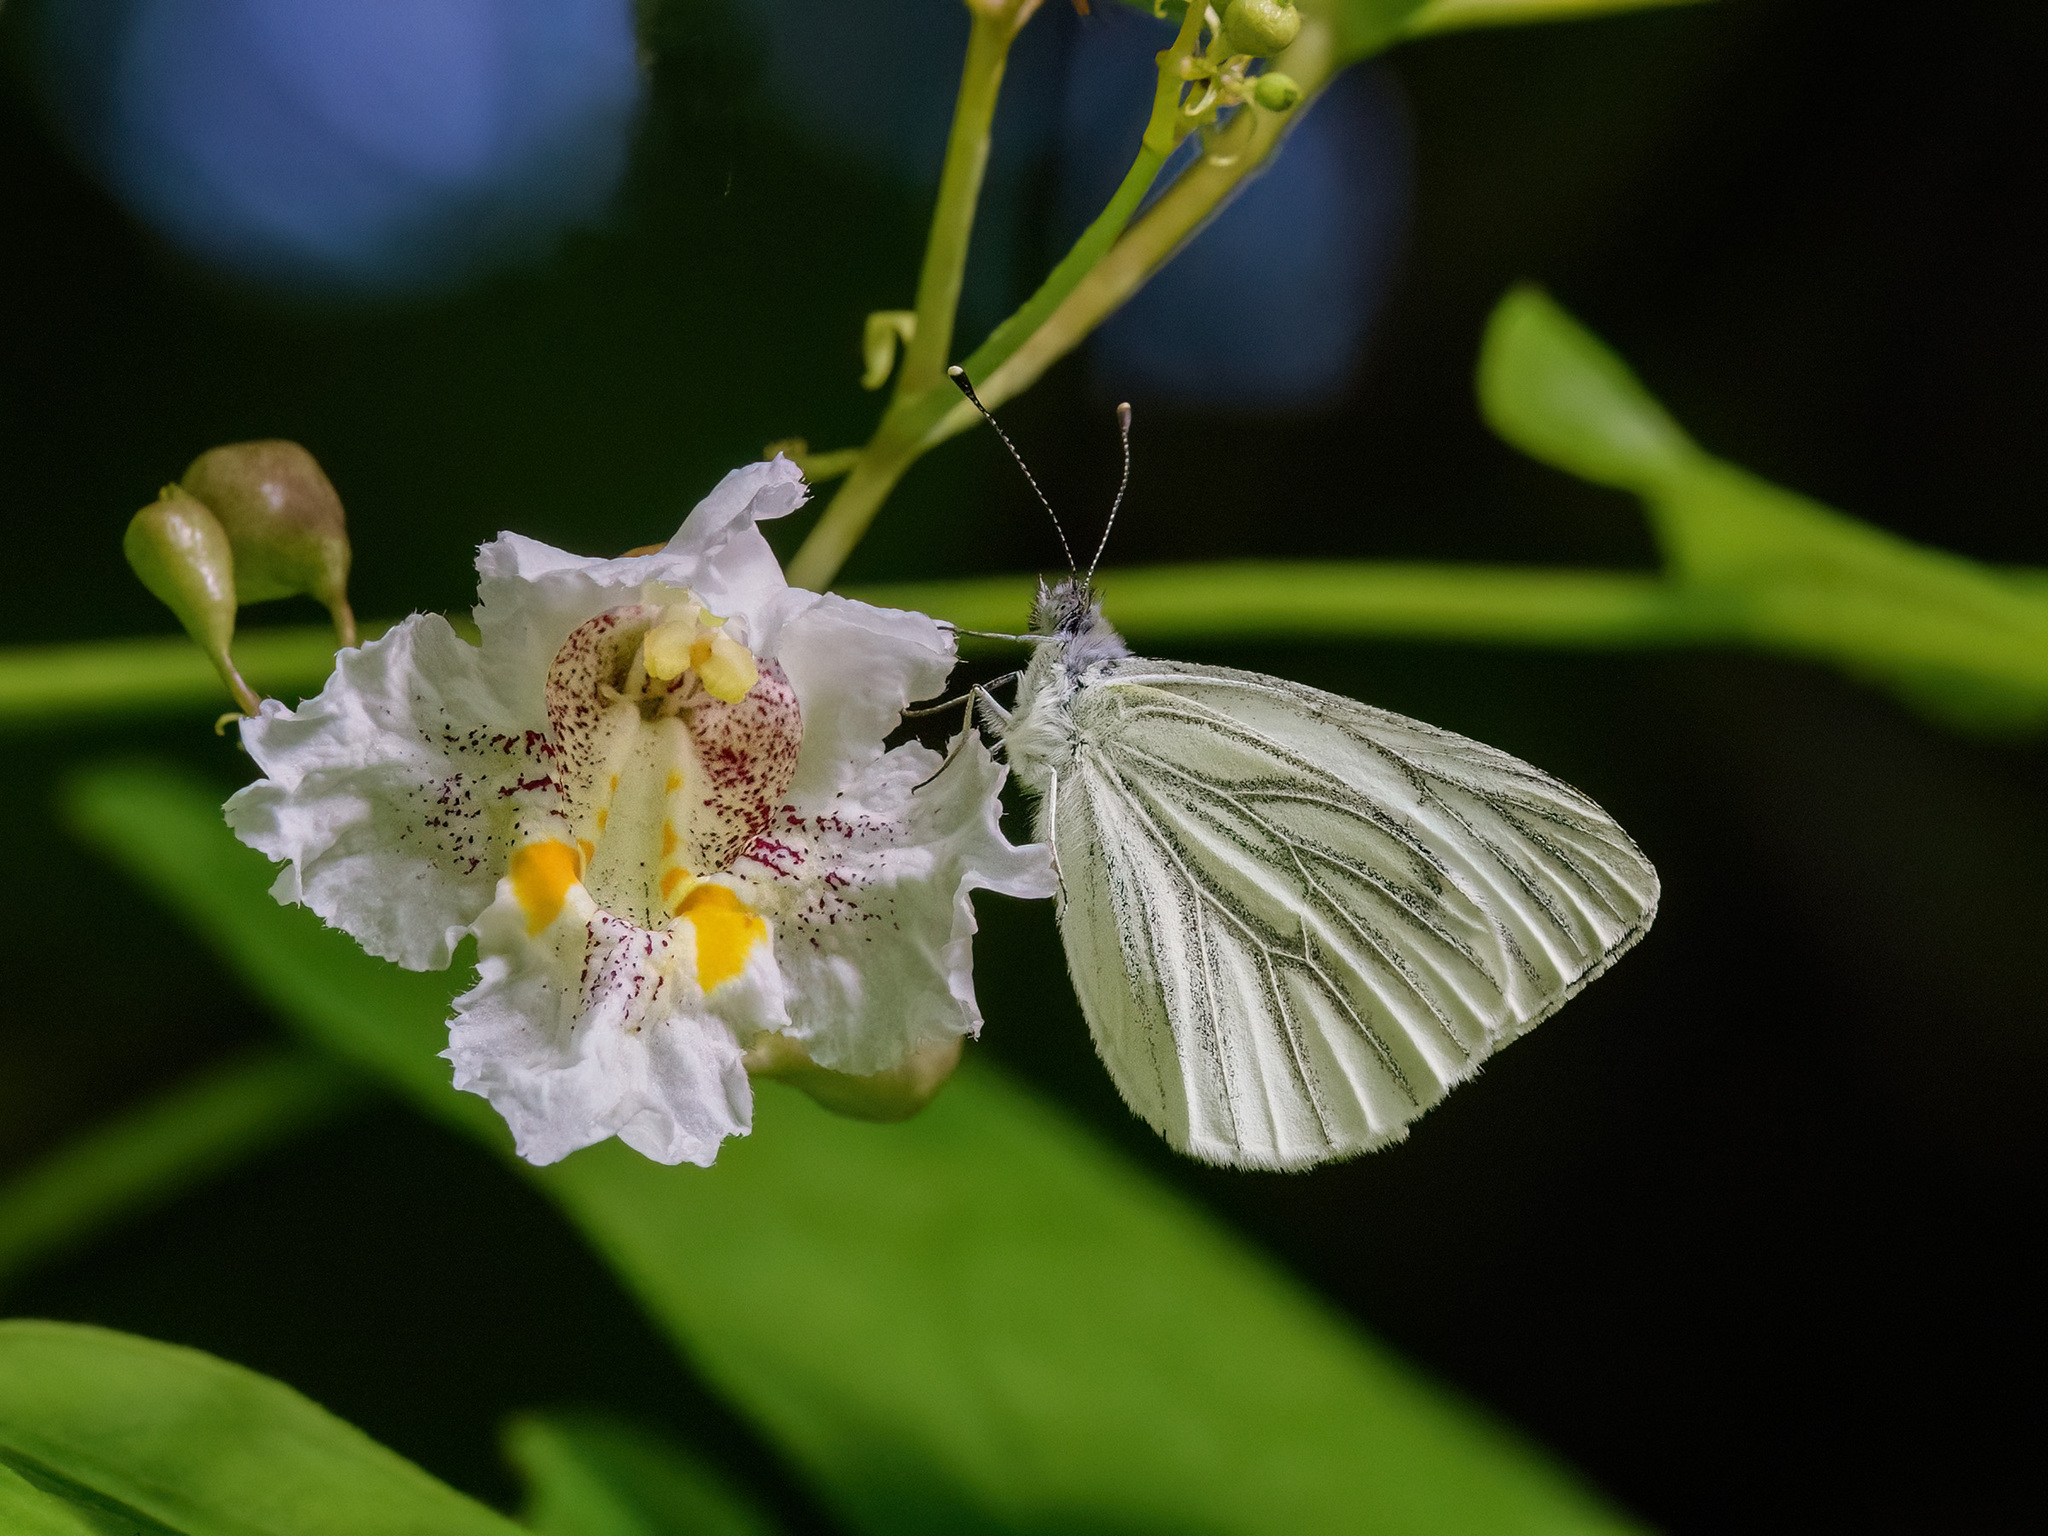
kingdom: Animalia
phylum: Arthropoda
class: Insecta
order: Lepidoptera
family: Pieridae
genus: Pieris
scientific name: Pieris napi
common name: Green-veined white
